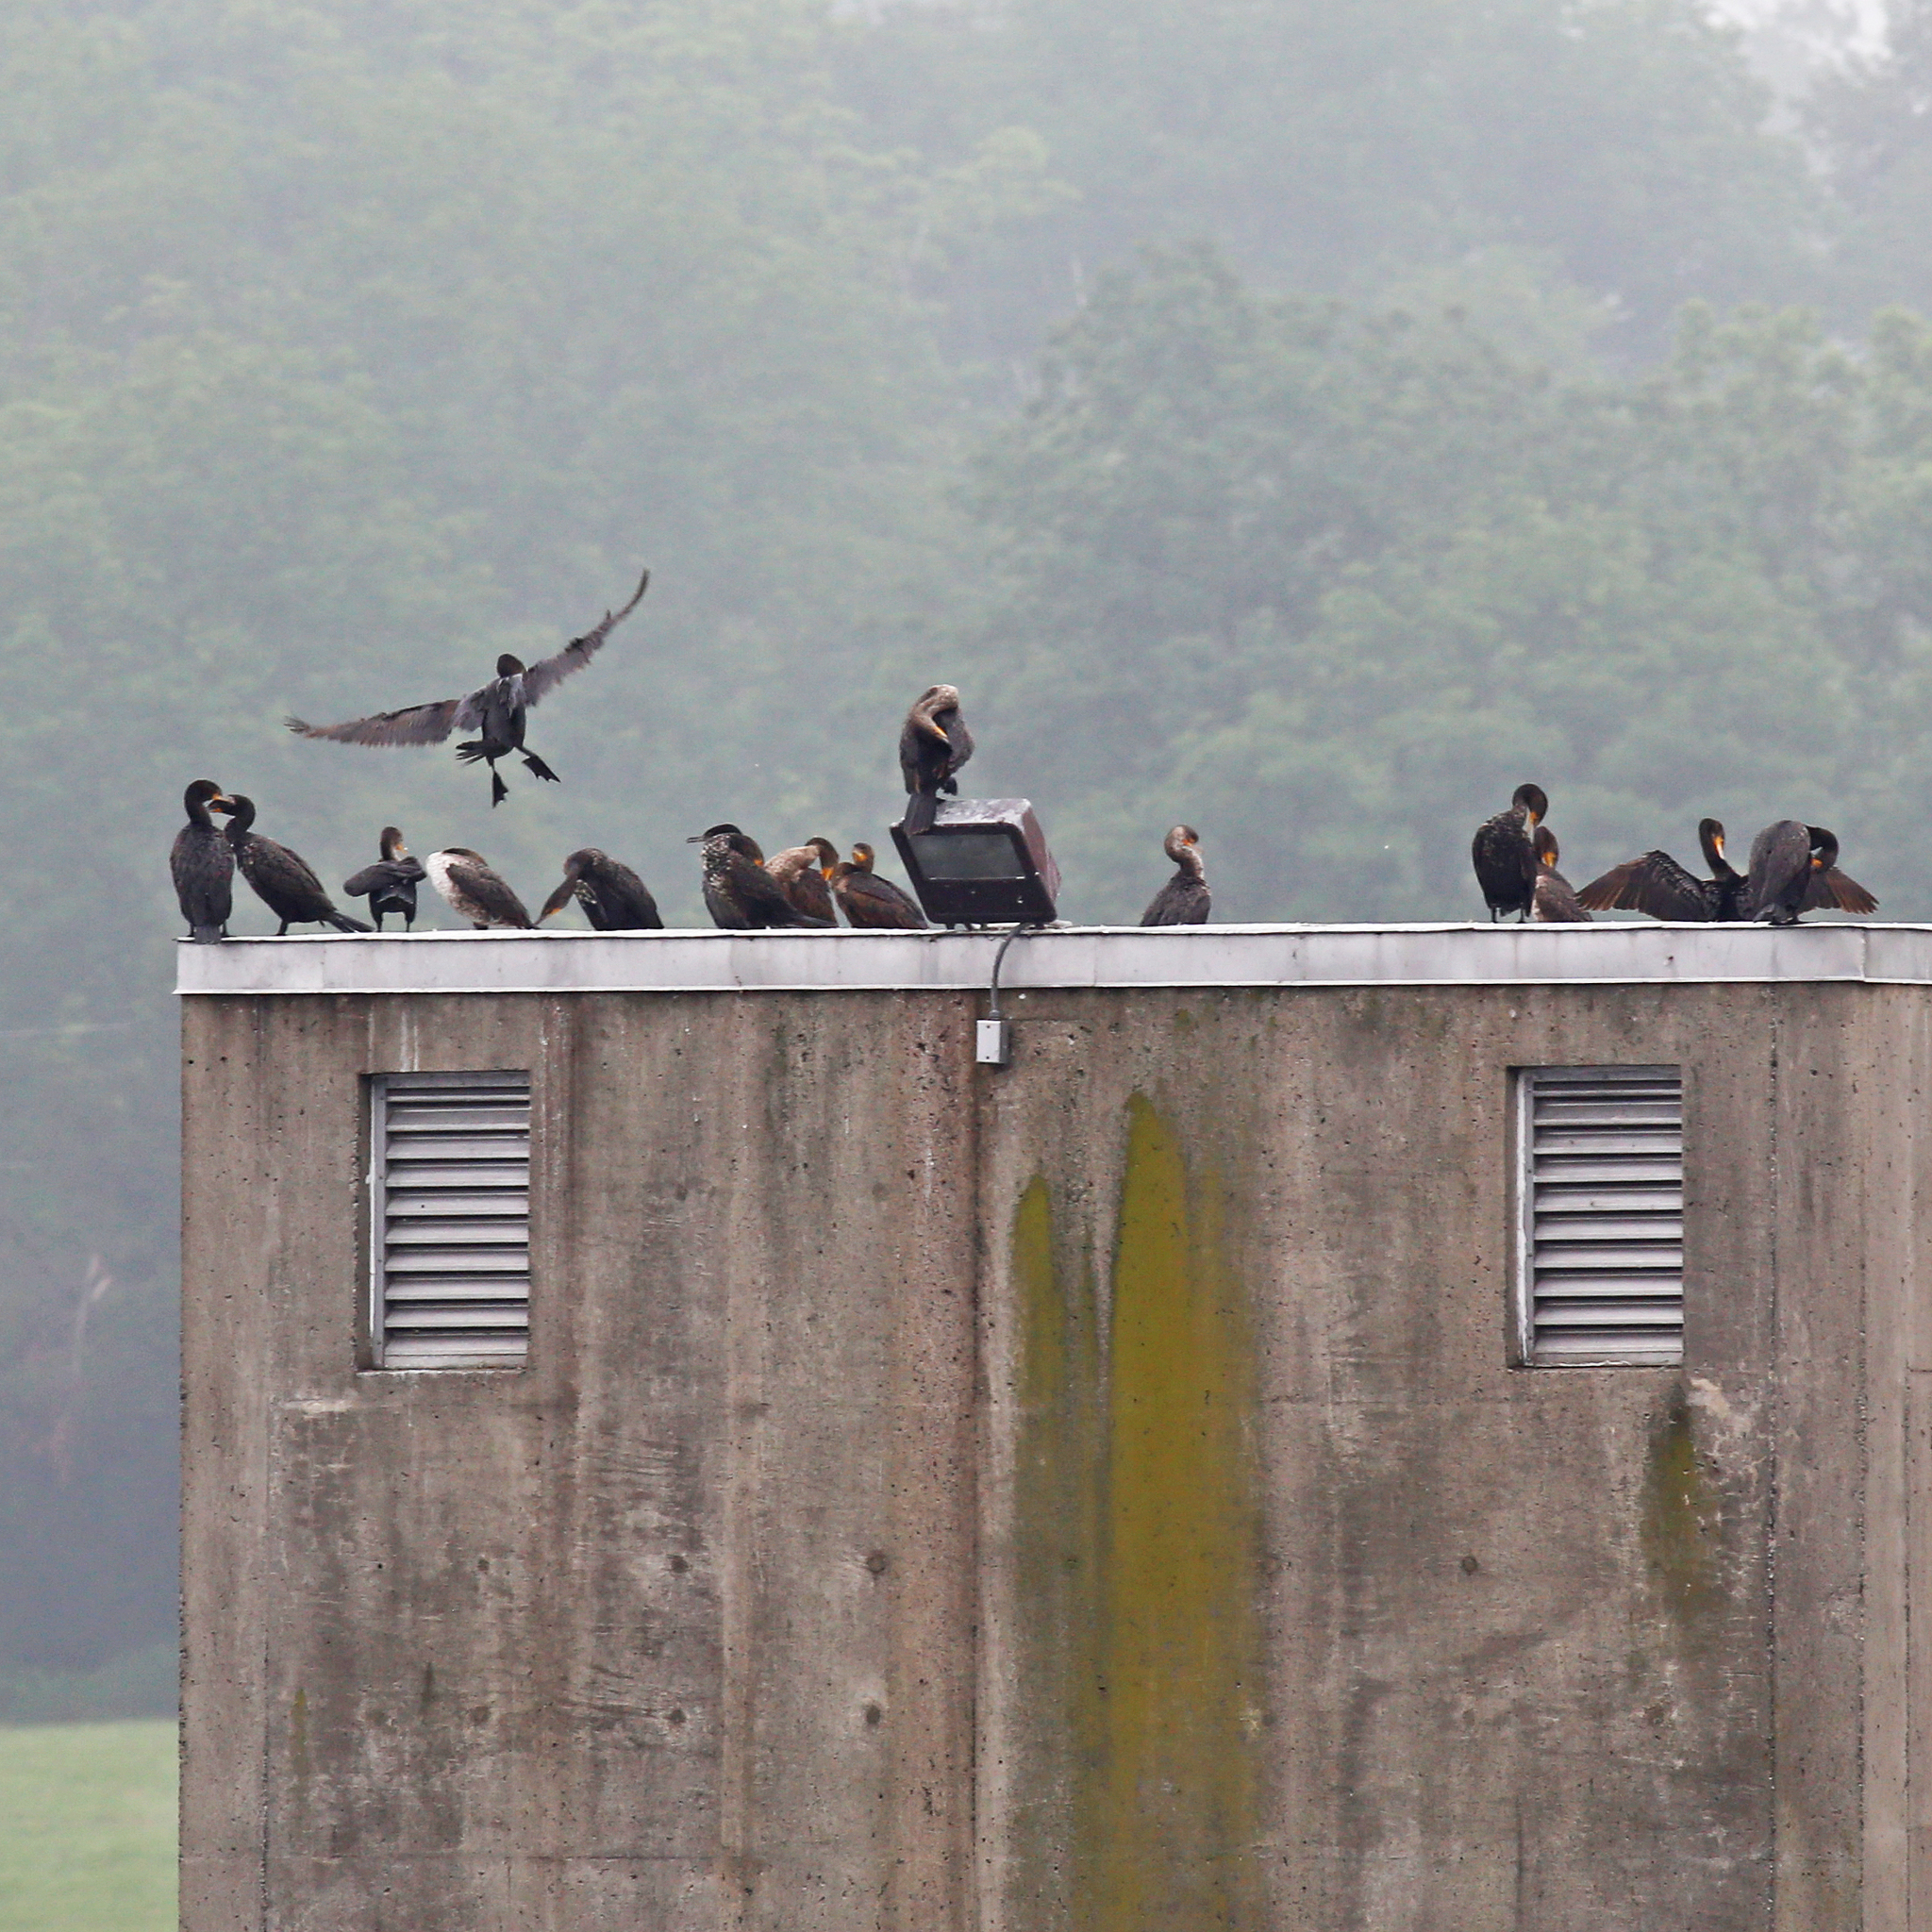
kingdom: Animalia
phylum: Chordata
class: Aves
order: Suliformes
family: Phalacrocoracidae
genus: Phalacrocorax
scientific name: Phalacrocorax auritus
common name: Double-crested cormorant
